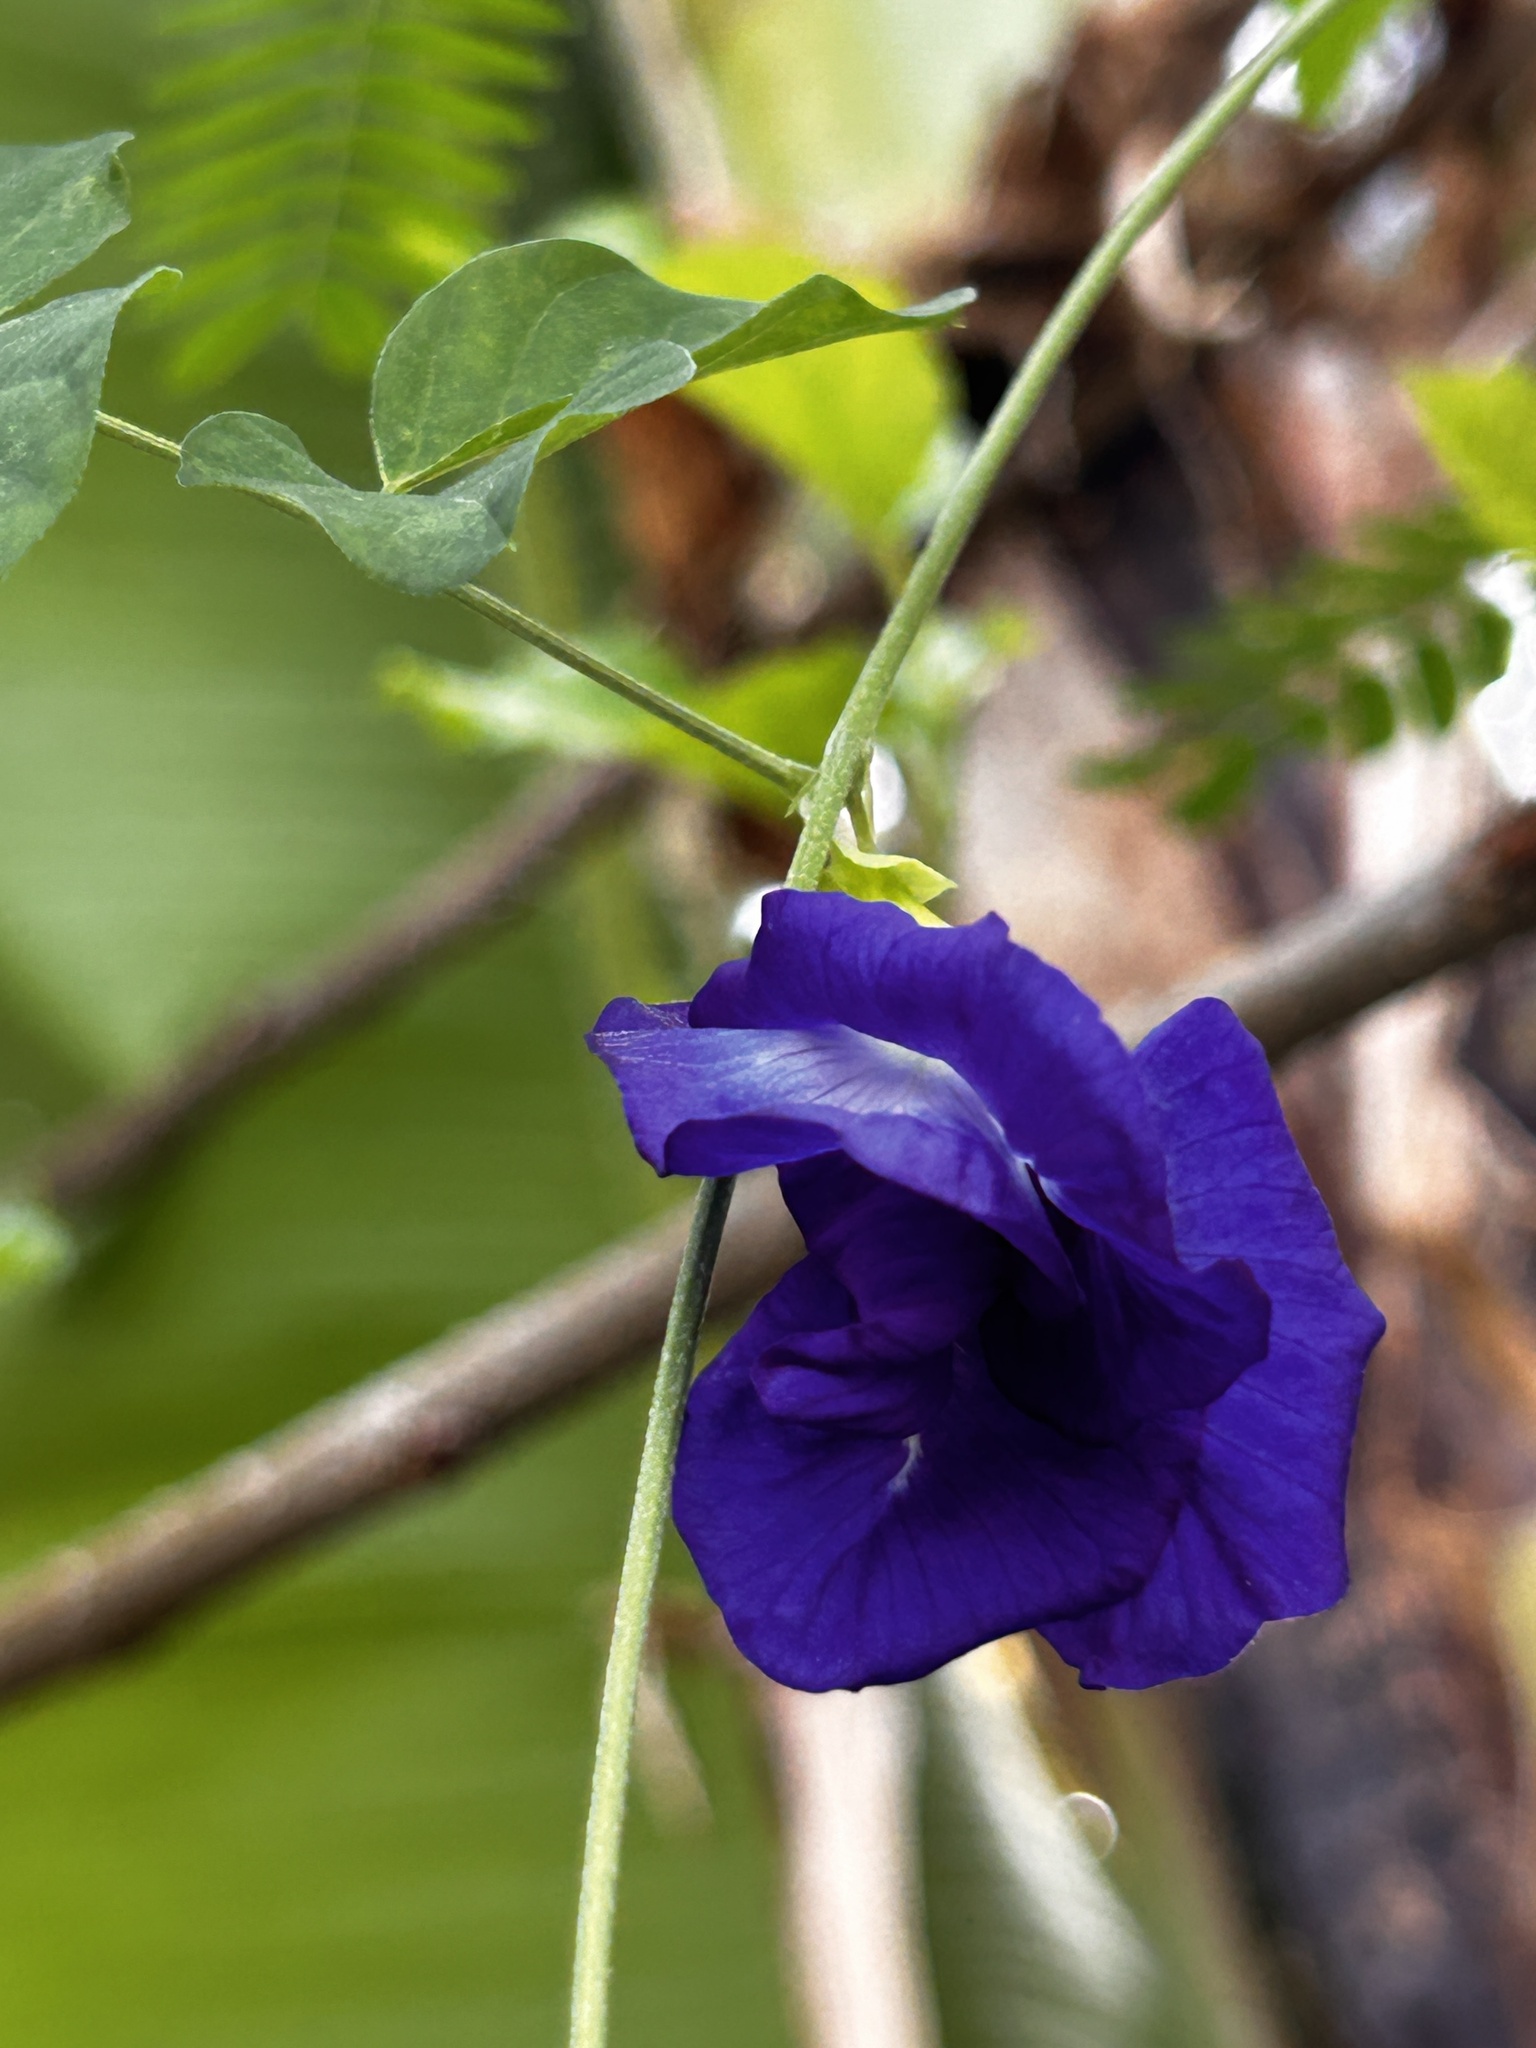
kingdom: Plantae
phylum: Tracheophyta
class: Magnoliopsida
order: Fabales
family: Fabaceae
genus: Clitoria
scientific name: Clitoria ternatea
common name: Asian pigeonwings
